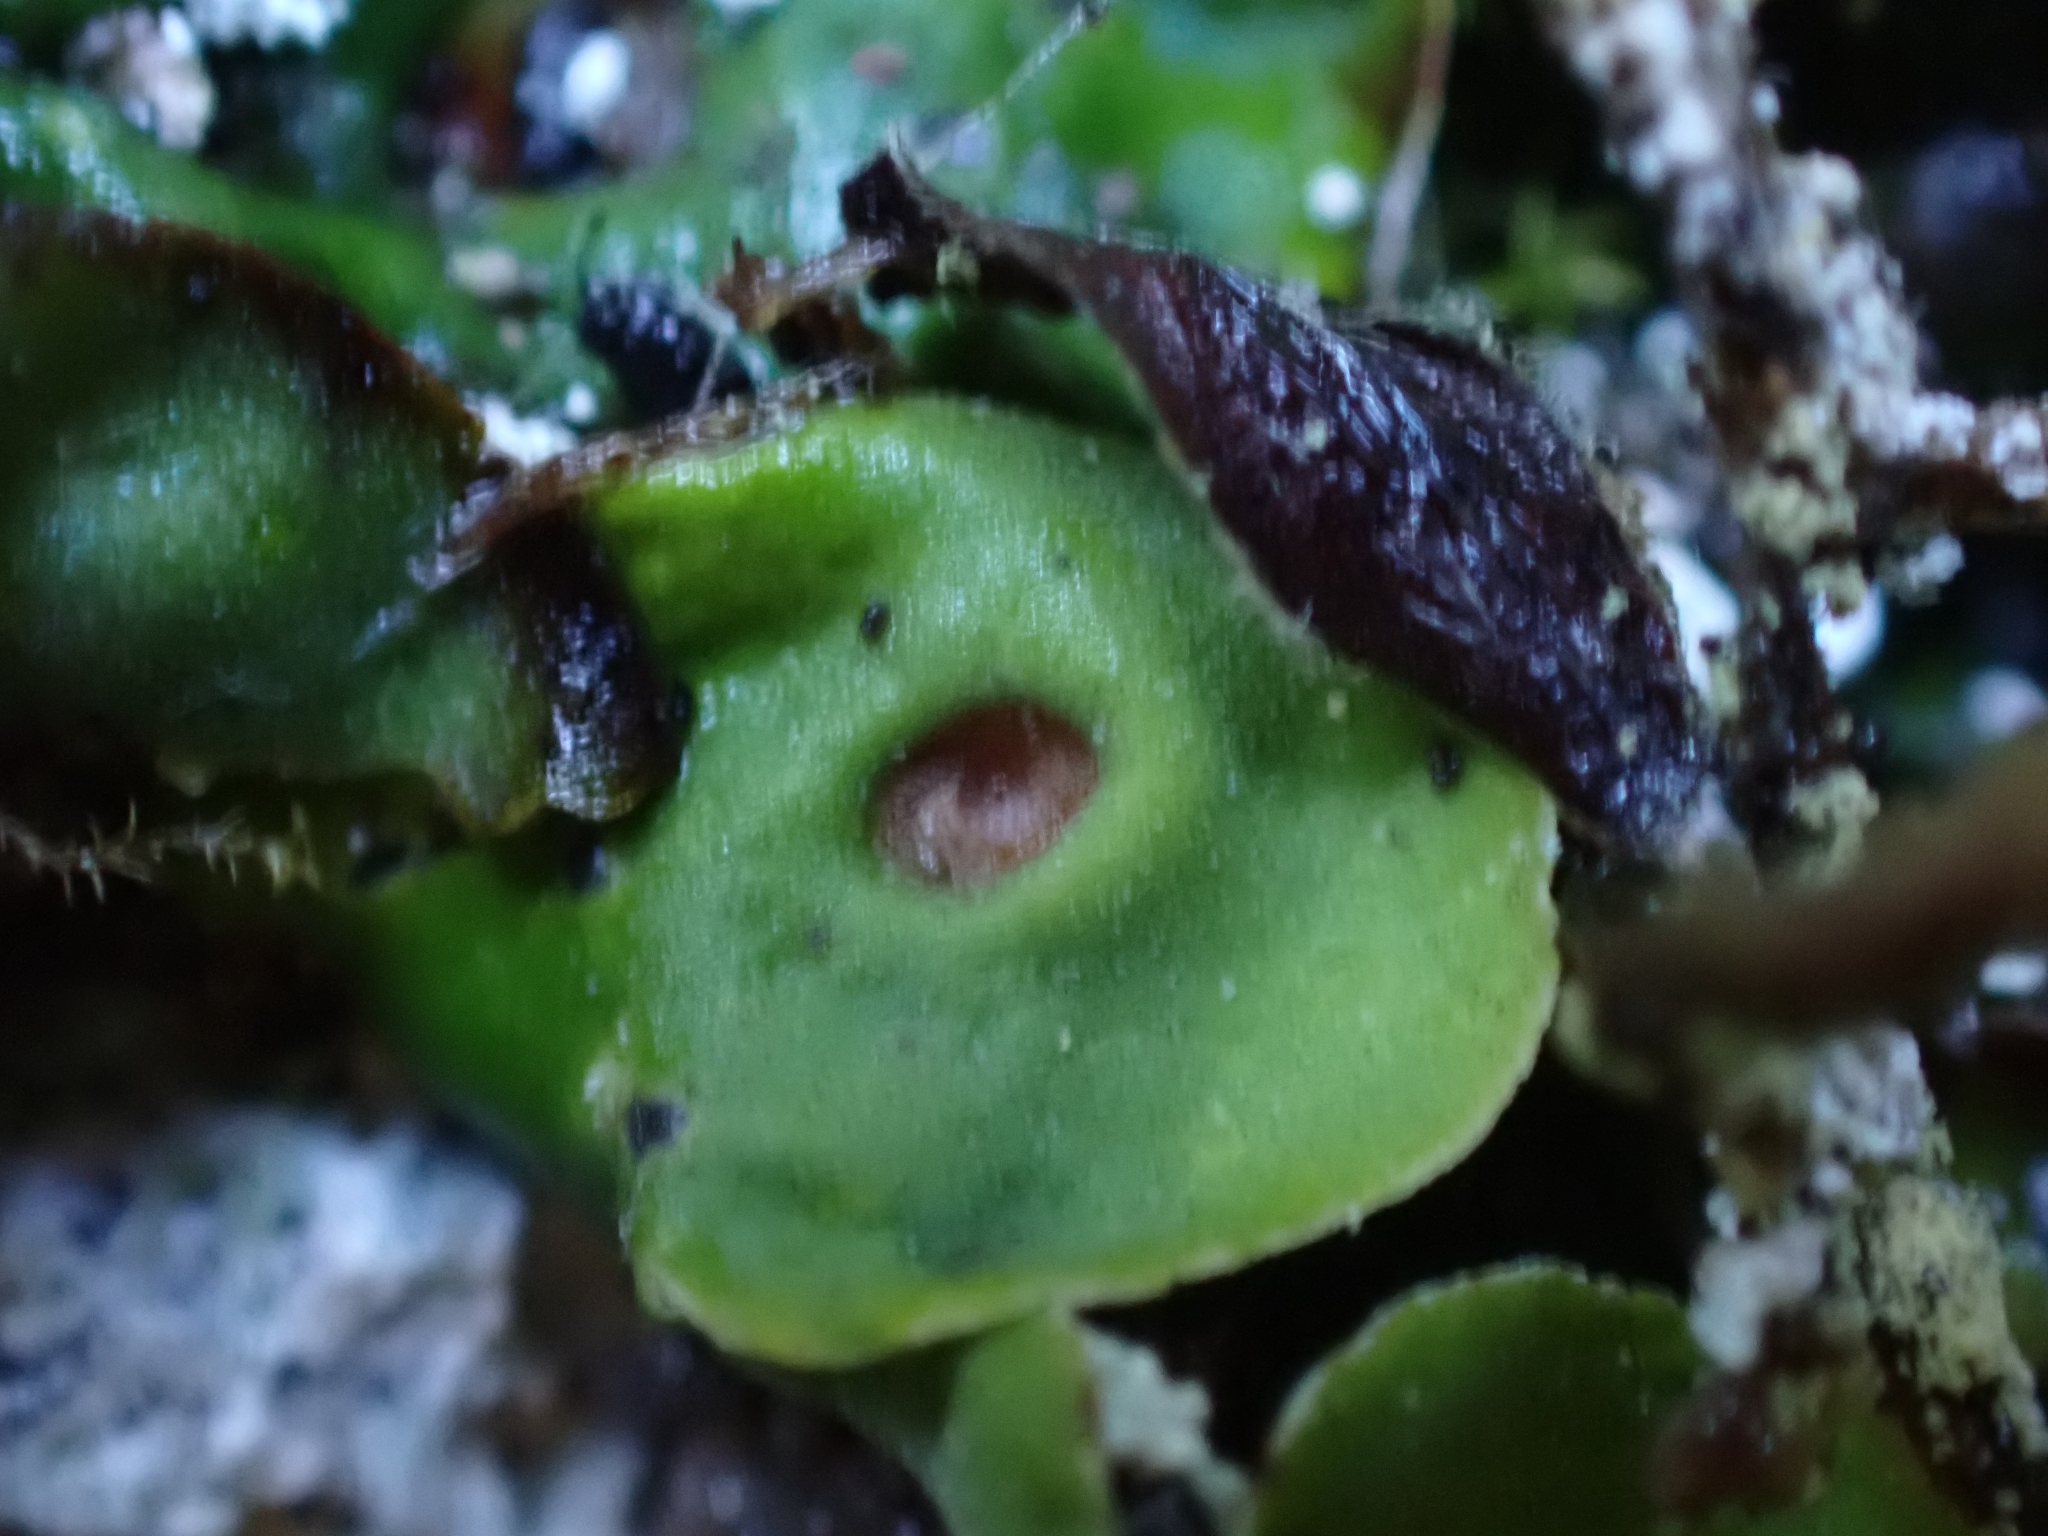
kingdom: Fungi
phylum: Ascomycota
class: Lecanoromycetes
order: Peltigerales
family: Peltigeraceae
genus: Solorina
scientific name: Solorina saccata
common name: Common chocolate chip lichen
